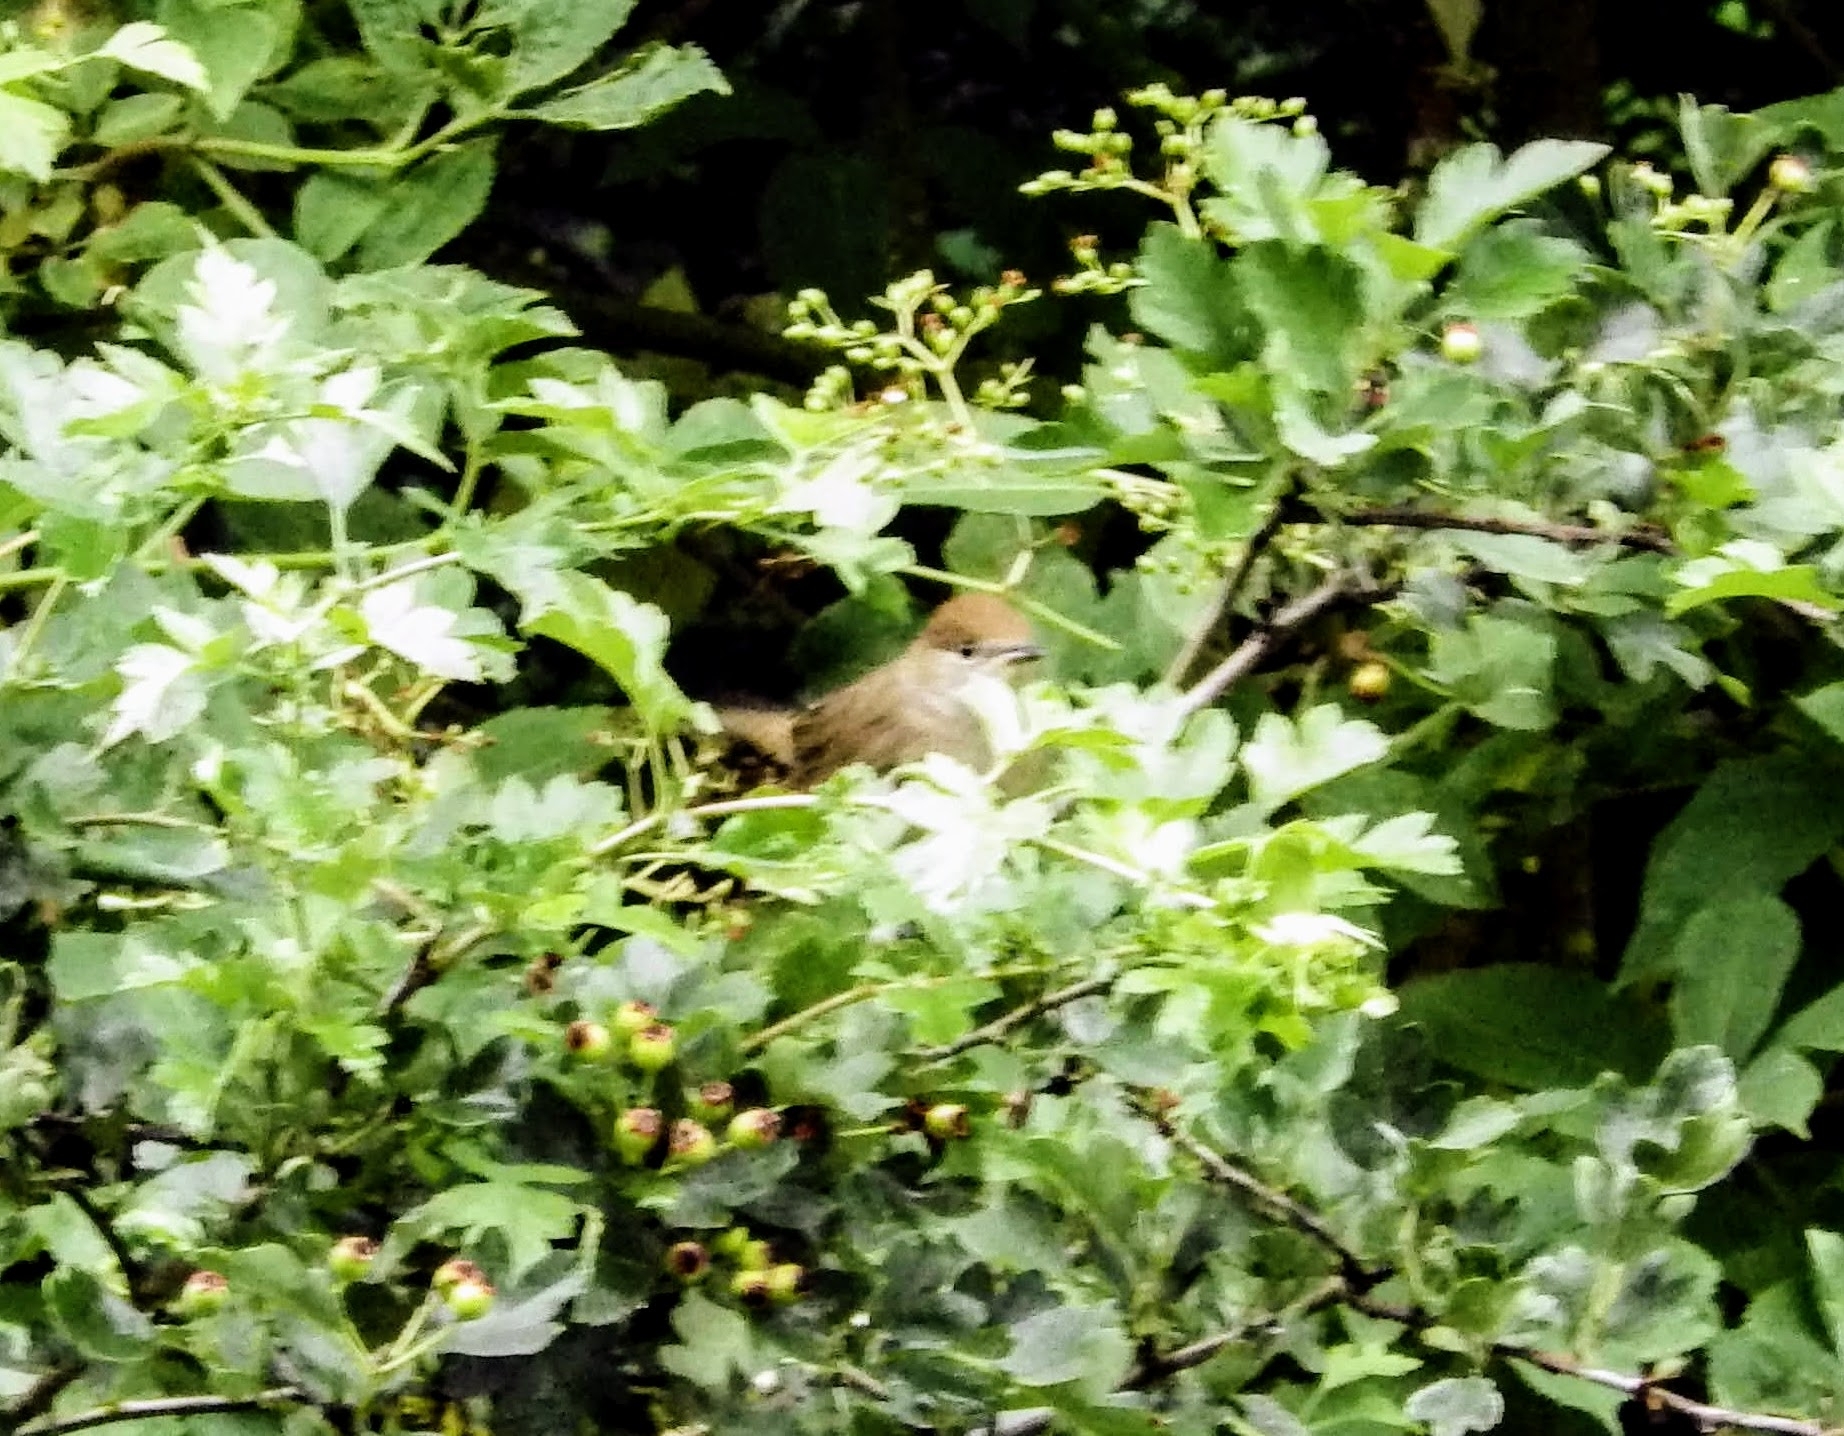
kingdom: Animalia
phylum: Chordata
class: Aves
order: Passeriformes
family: Sylviidae
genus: Sylvia
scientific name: Sylvia atricapilla
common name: Eurasian blackcap
